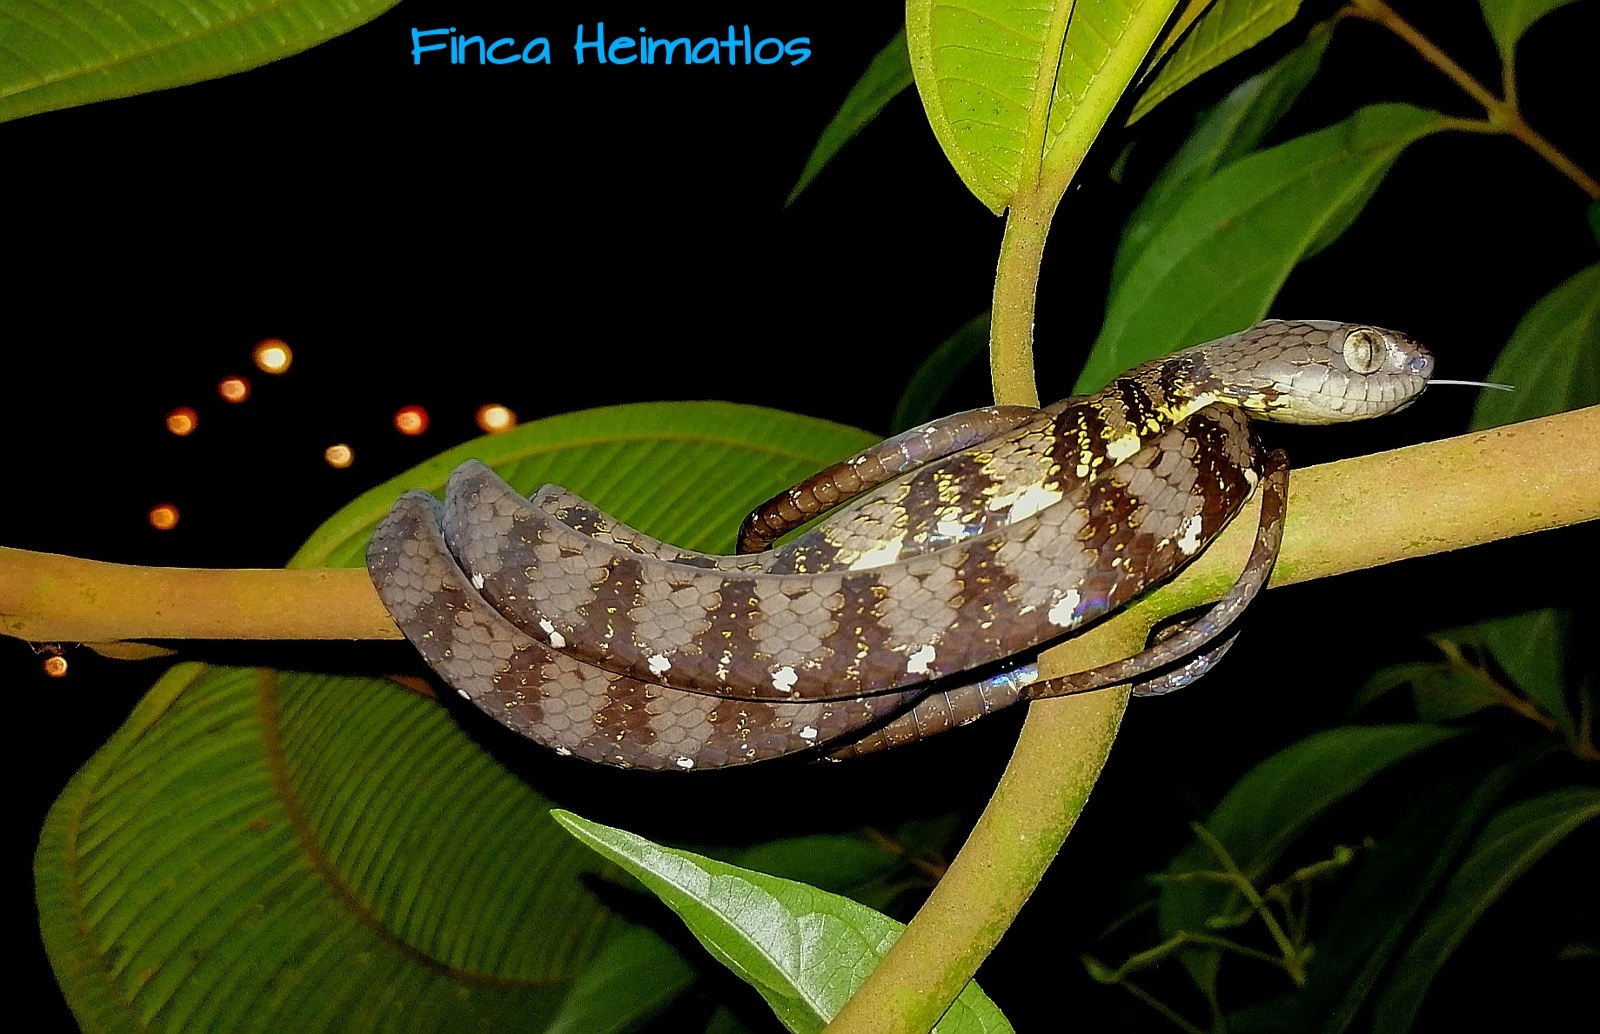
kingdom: Animalia
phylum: Chordata
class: Squamata
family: Colubridae
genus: Dipsas
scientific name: Dipsas indica
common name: Neotropical snail-eater
